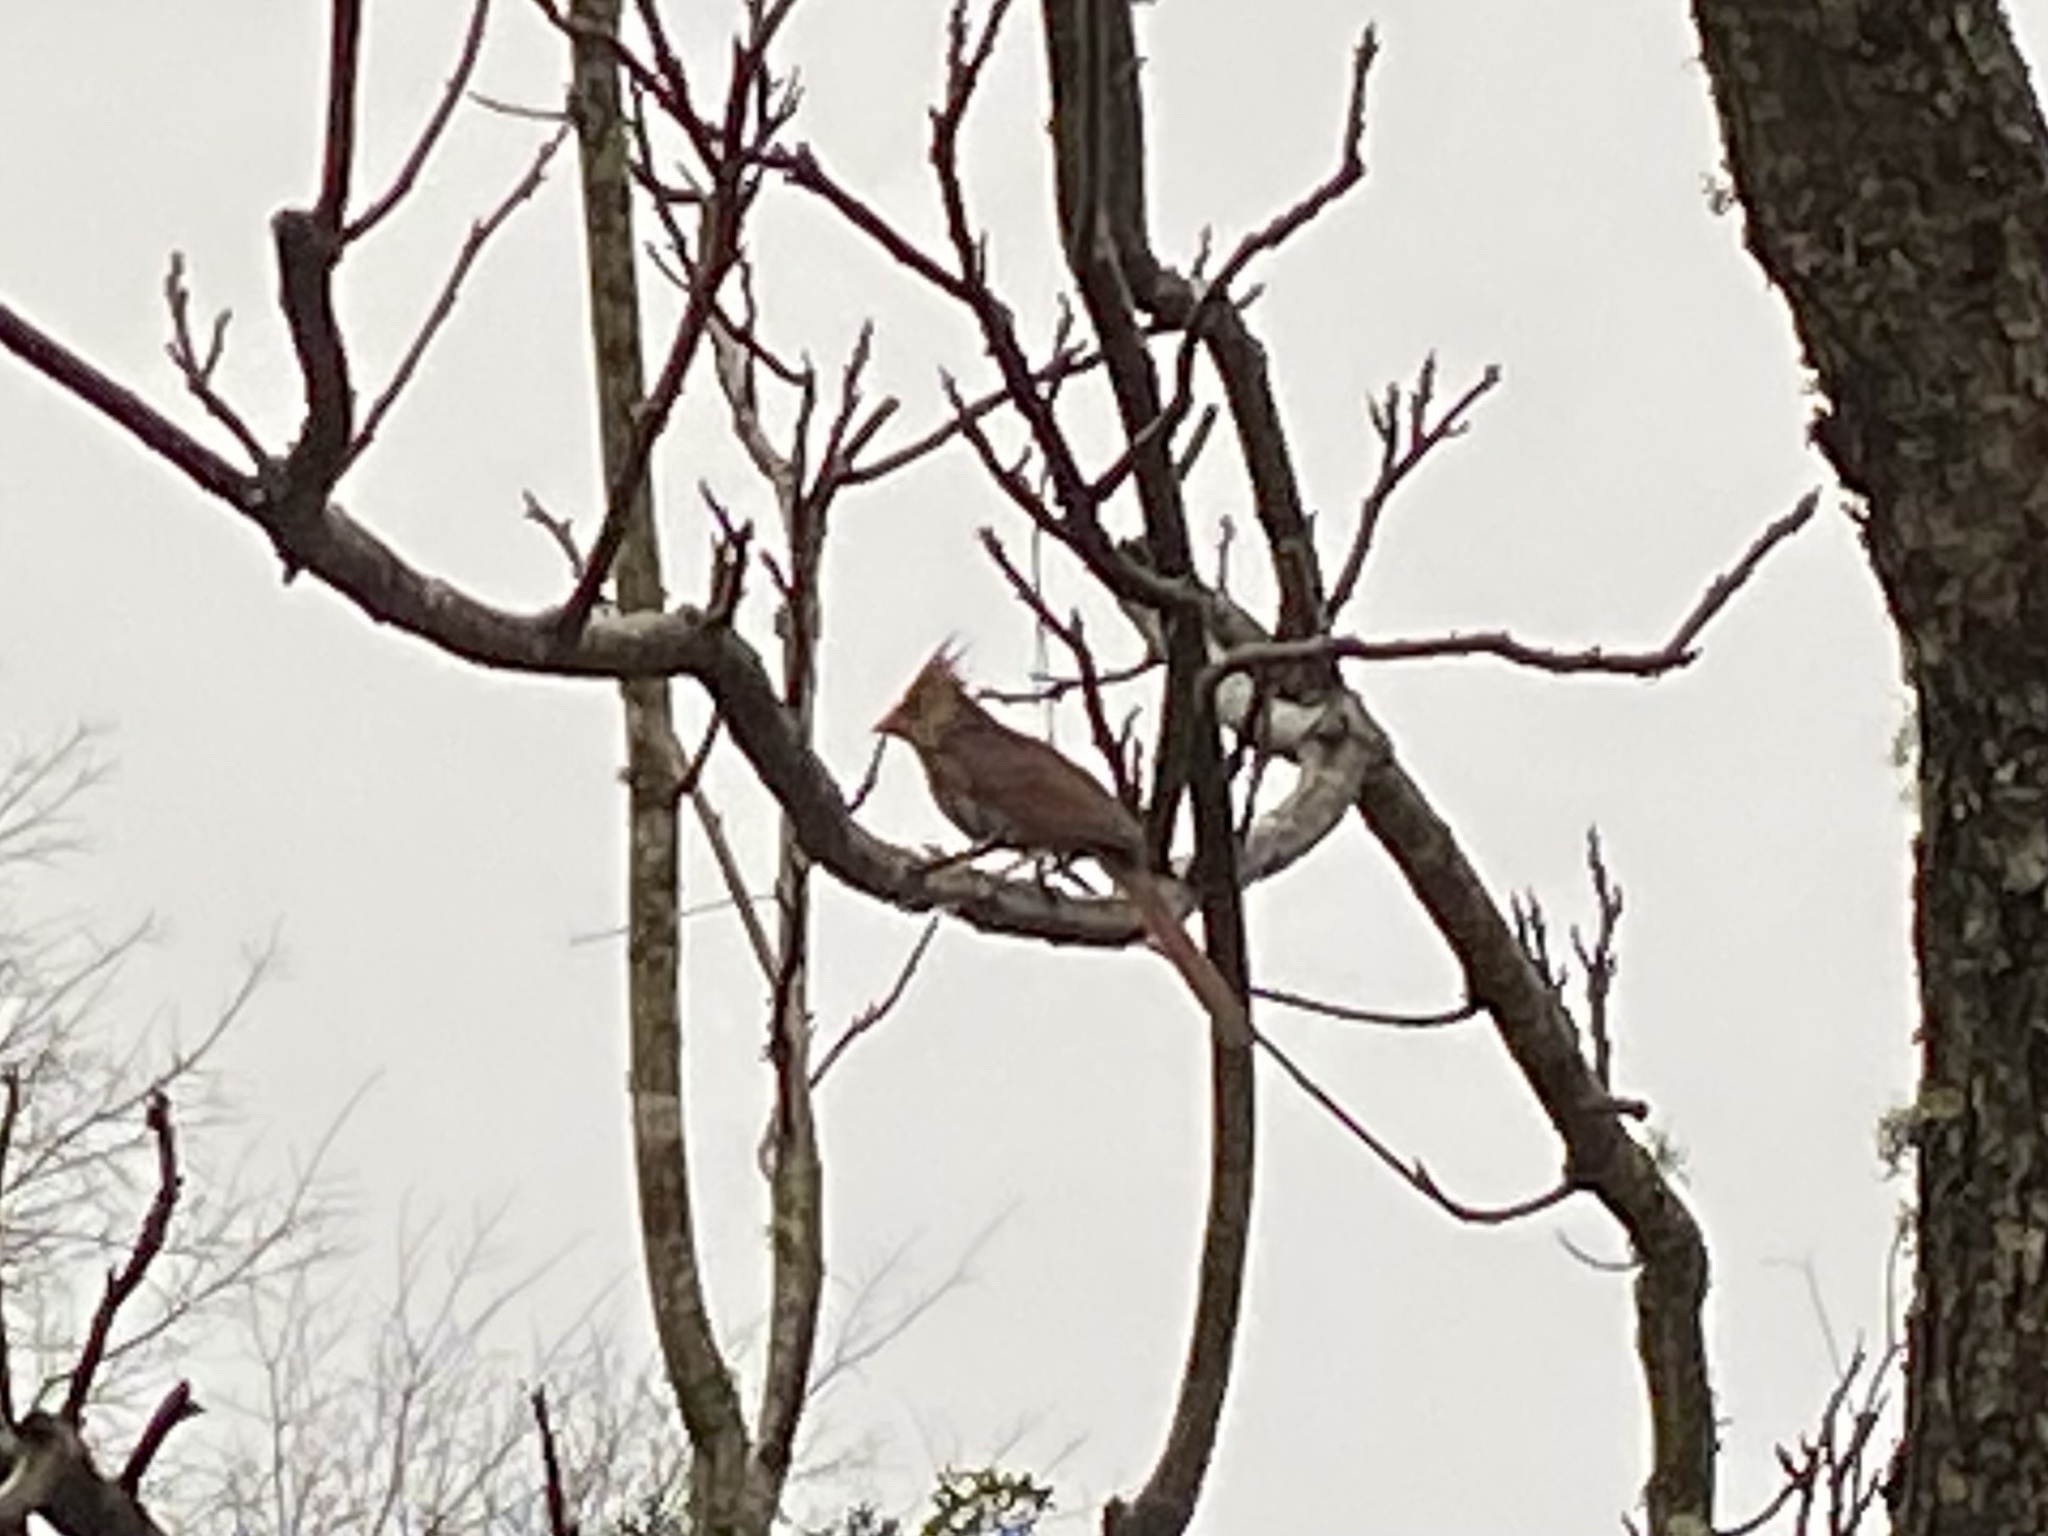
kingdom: Animalia
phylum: Chordata
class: Aves
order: Passeriformes
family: Cardinalidae
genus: Cardinalis
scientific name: Cardinalis cardinalis
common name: Northern cardinal
